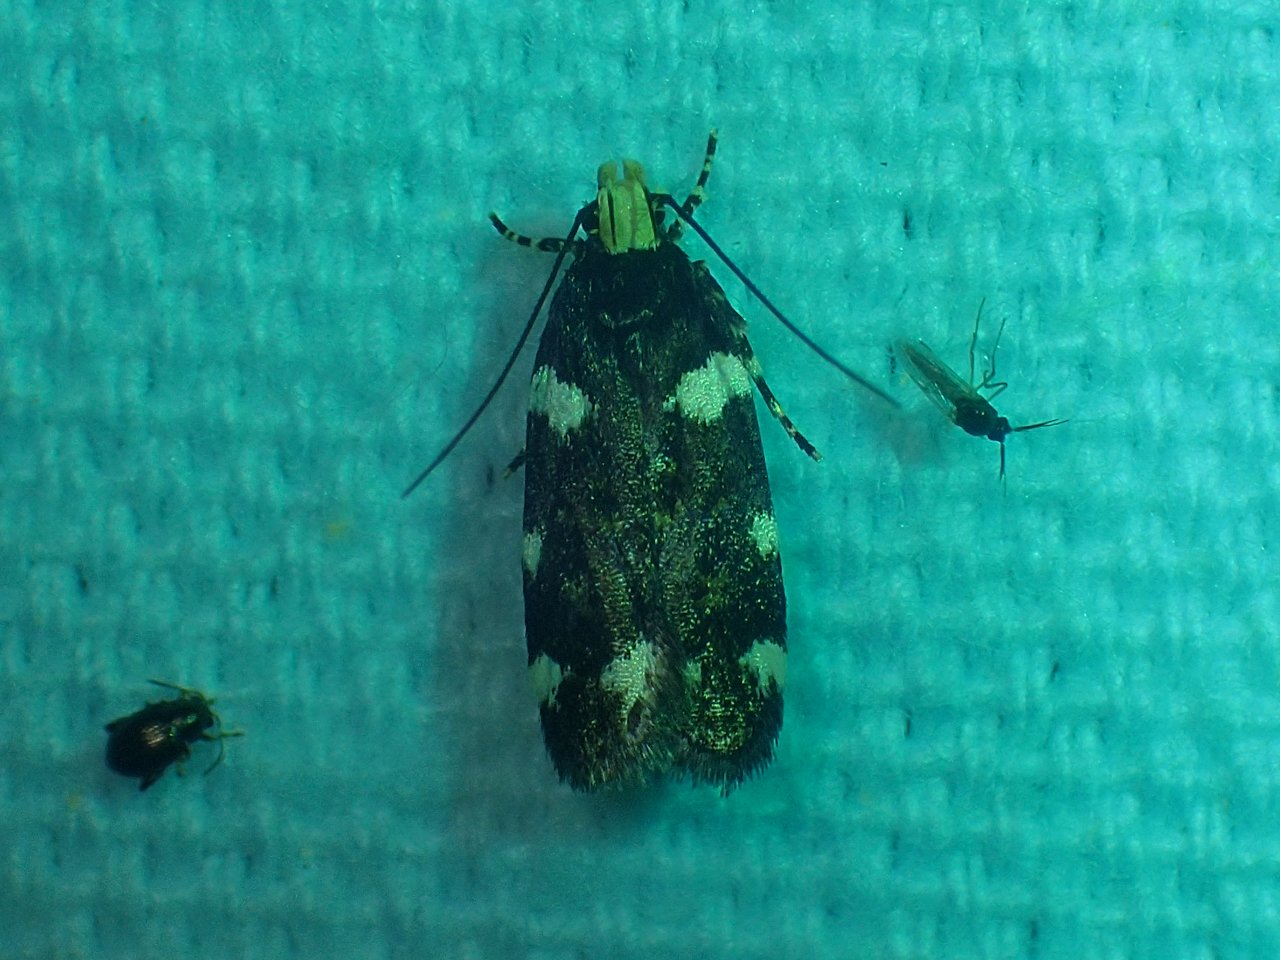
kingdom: Animalia
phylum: Arthropoda
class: Insecta
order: Lepidoptera
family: Gelechiidae
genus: Fascista
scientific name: Fascista cercerisella
